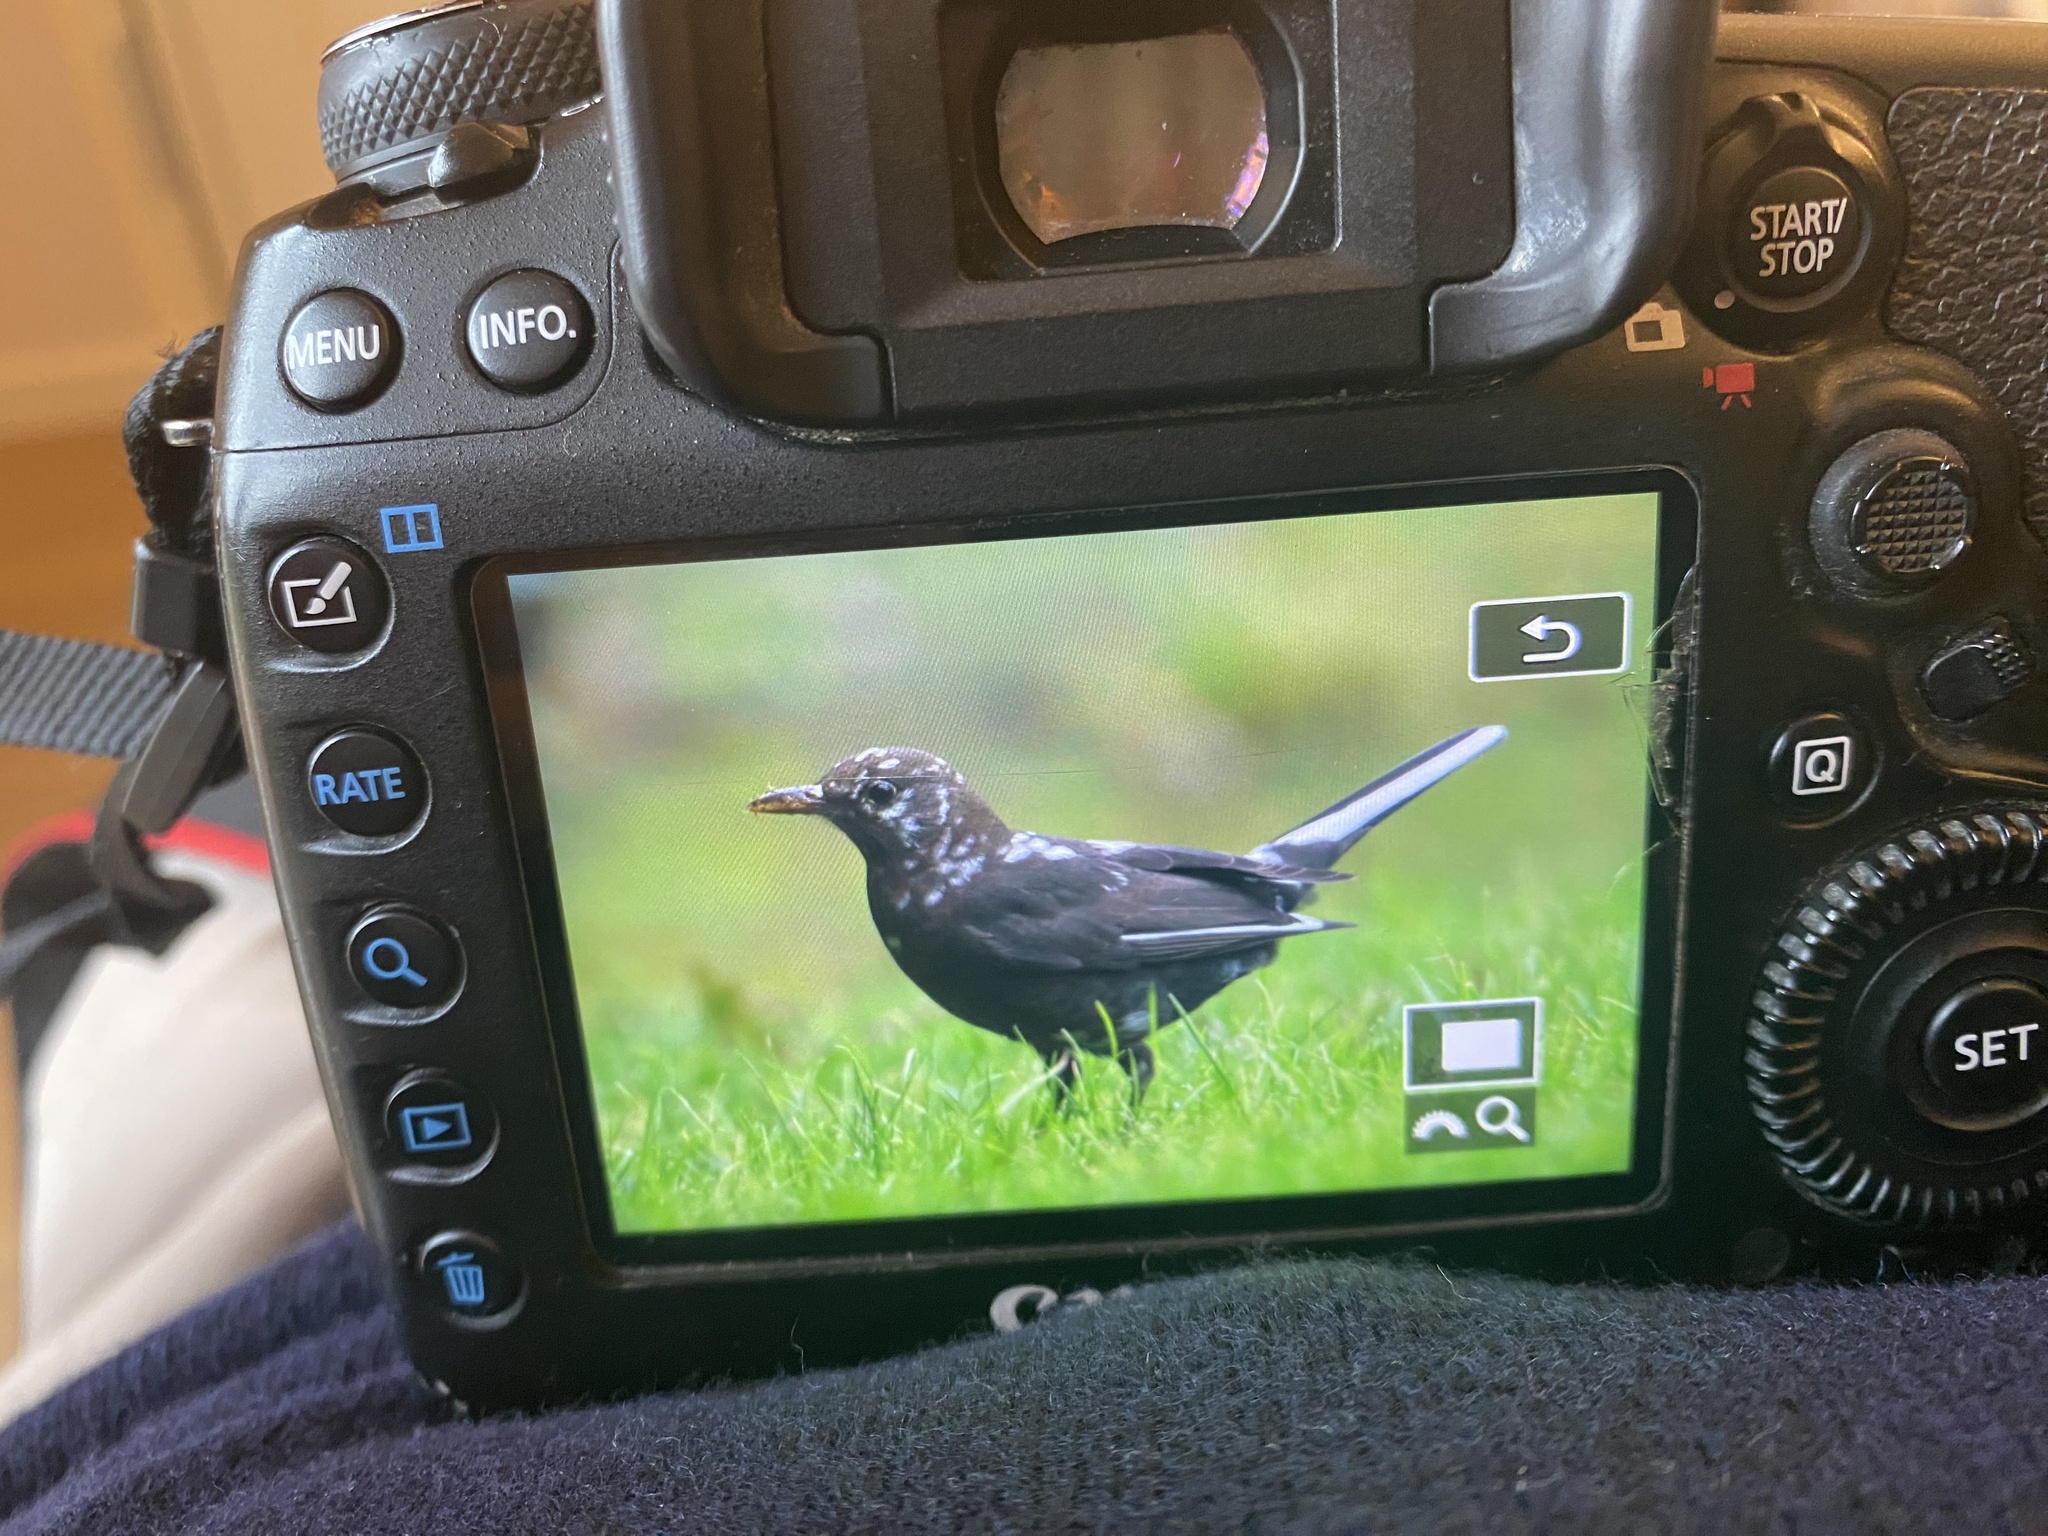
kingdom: Animalia
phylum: Chordata
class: Aves
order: Passeriformes
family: Turdidae
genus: Turdus
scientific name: Turdus merula
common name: Common blackbird
